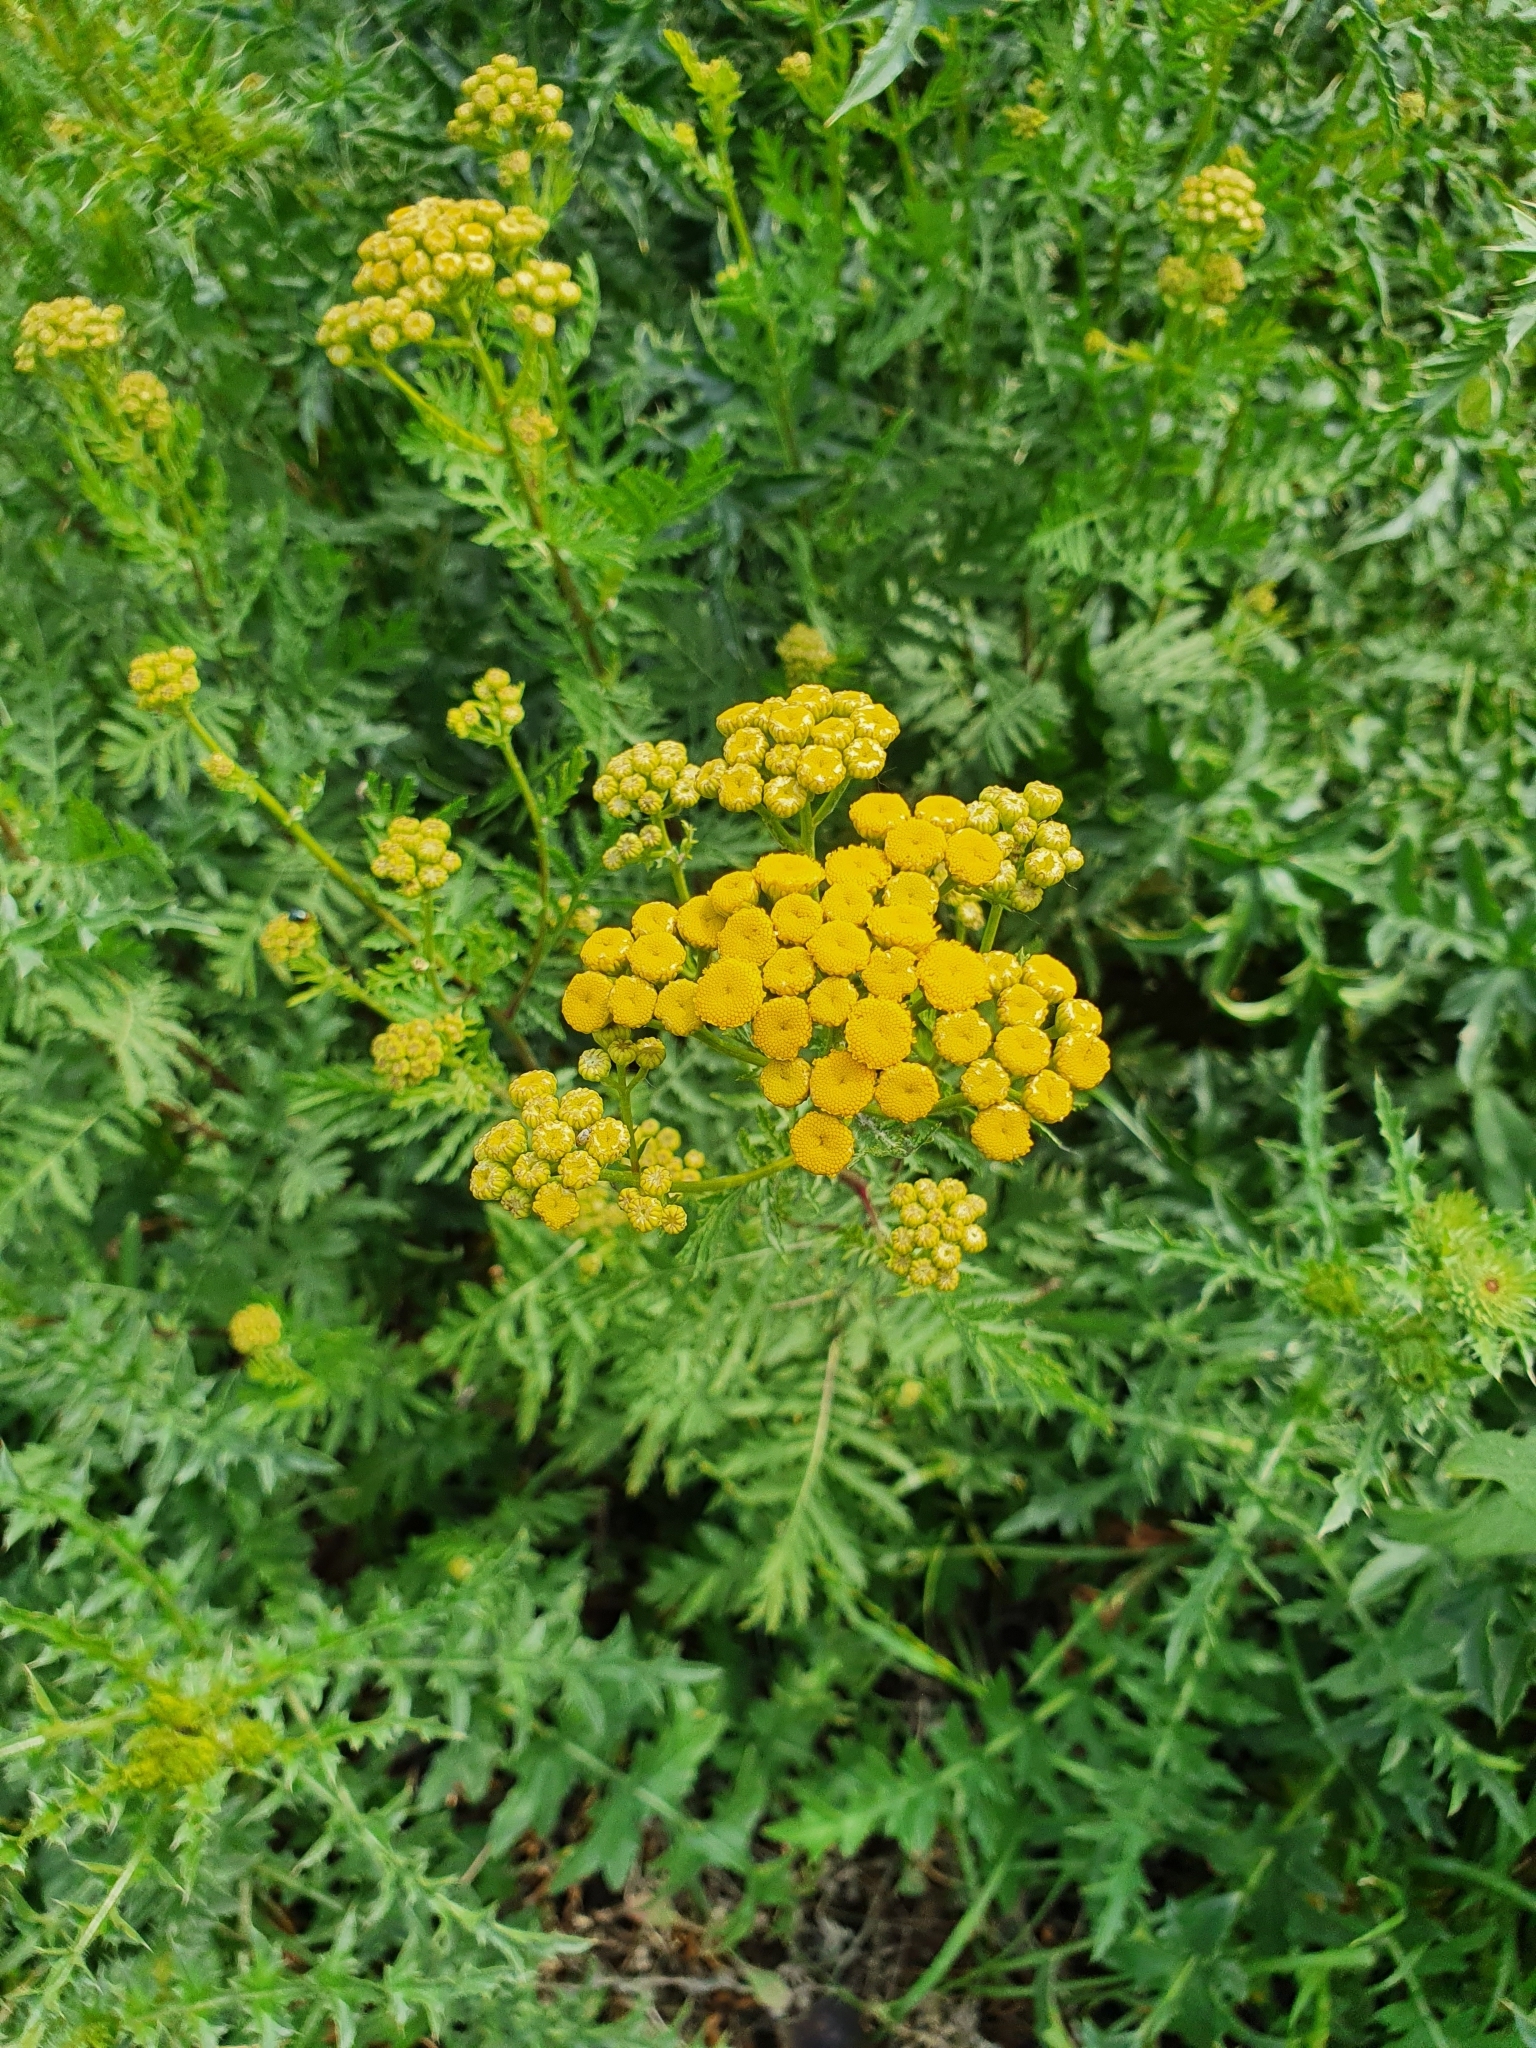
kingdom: Plantae
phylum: Tracheophyta
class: Magnoliopsida
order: Asterales
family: Asteraceae
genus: Tanacetum
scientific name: Tanacetum vulgare
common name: Common tansy
